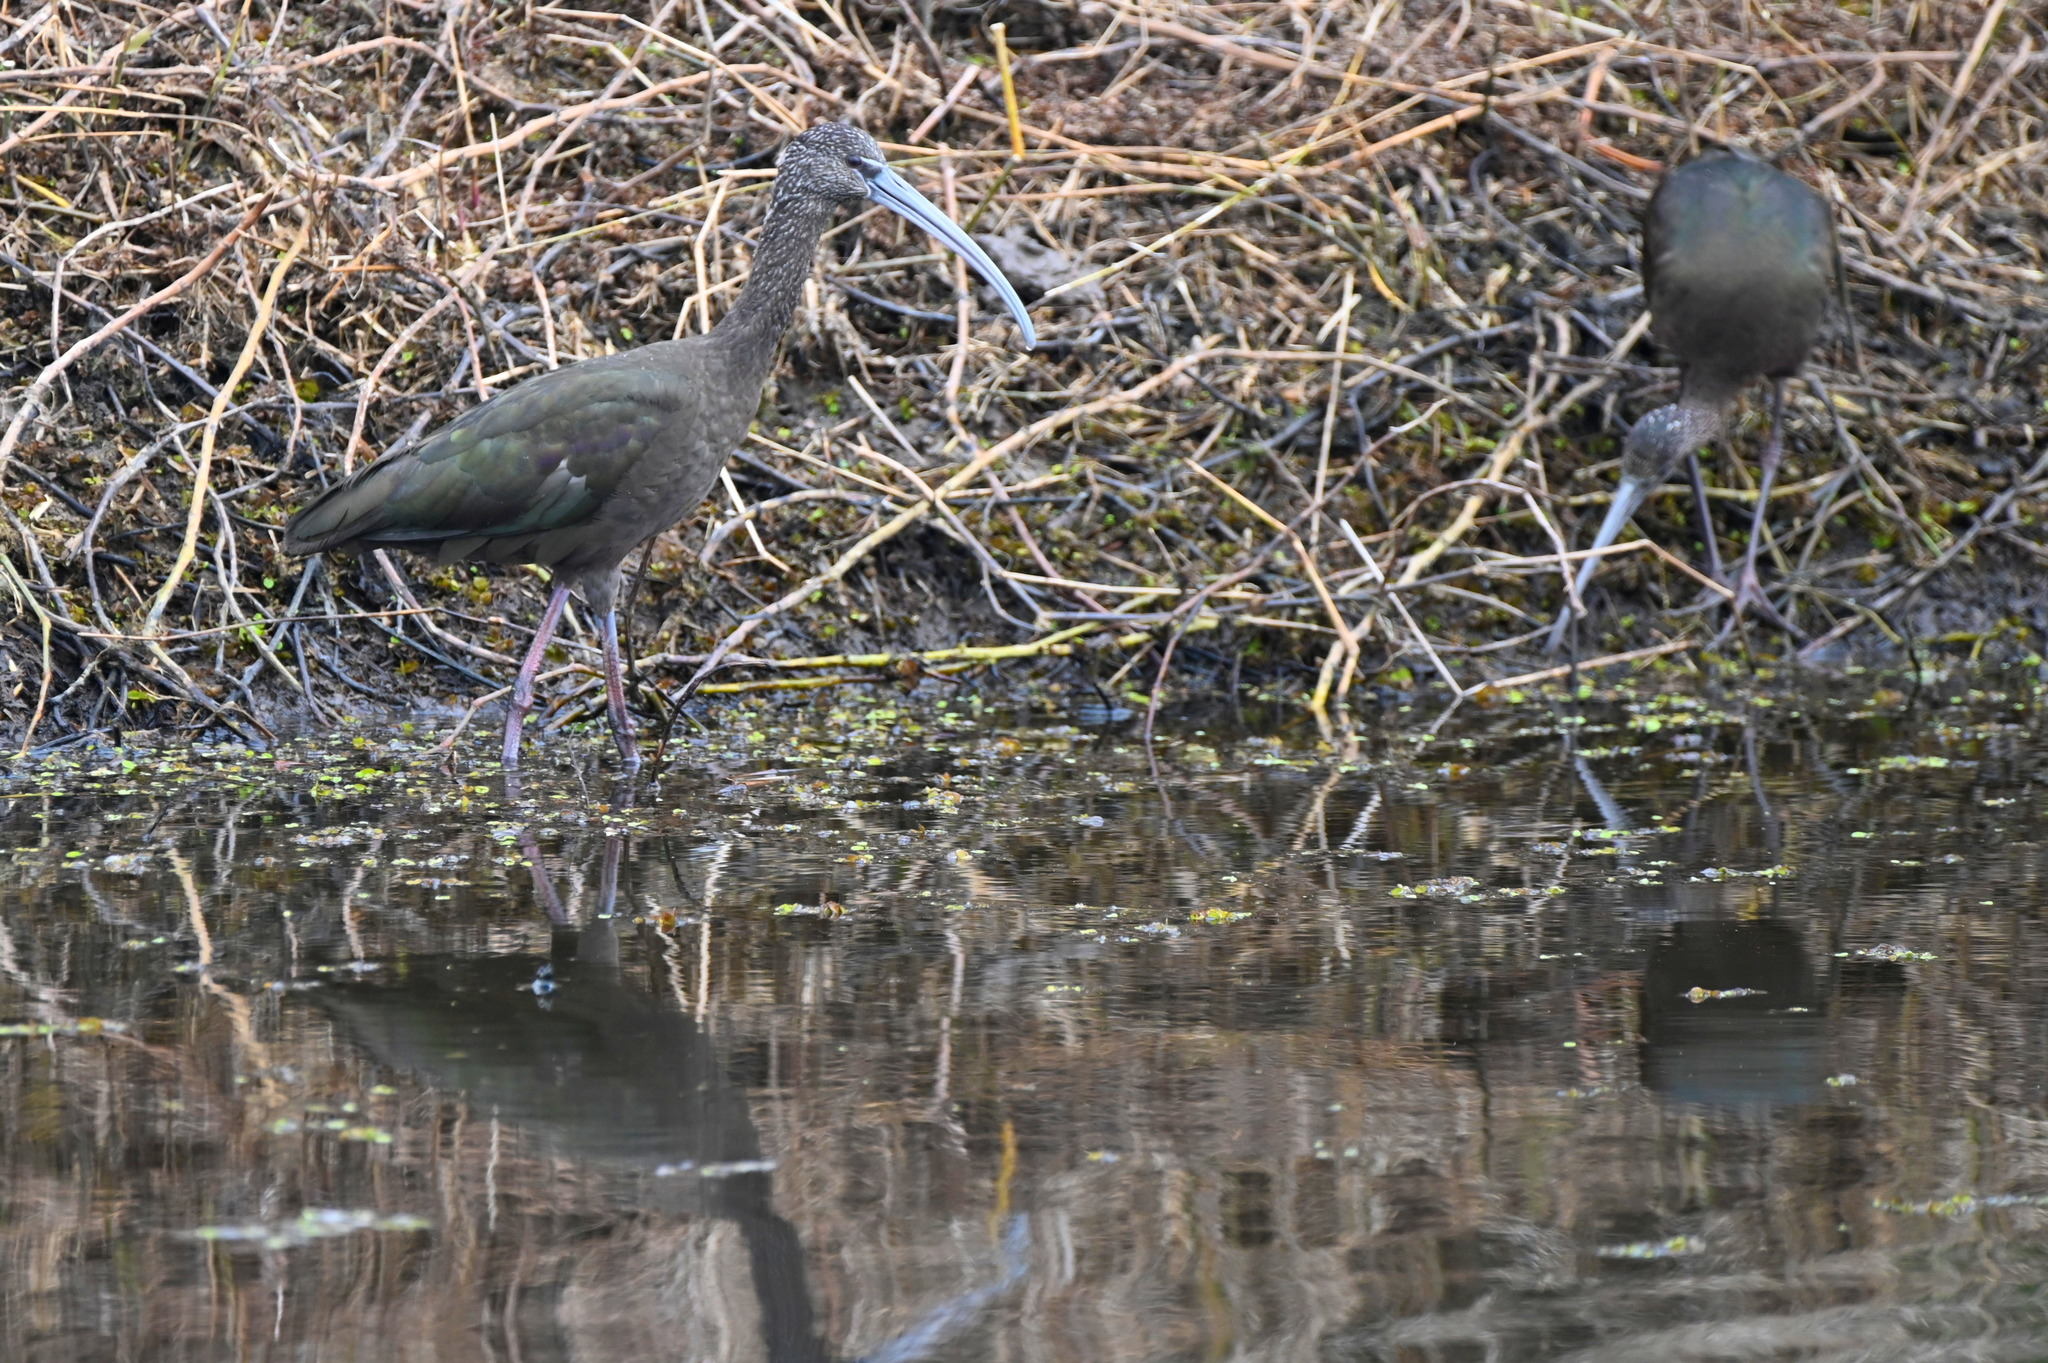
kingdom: Animalia
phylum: Chordata
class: Aves
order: Pelecaniformes
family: Threskiornithidae
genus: Plegadis
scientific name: Plegadis falcinellus
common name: Glossy ibis
